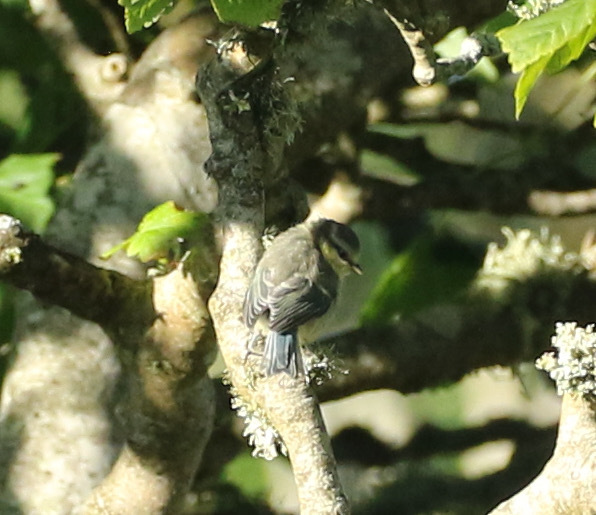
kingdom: Animalia
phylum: Chordata
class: Aves
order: Passeriformes
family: Paridae
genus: Cyanistes
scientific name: Cyanistes caeruleus
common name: Eurasian blue tit
